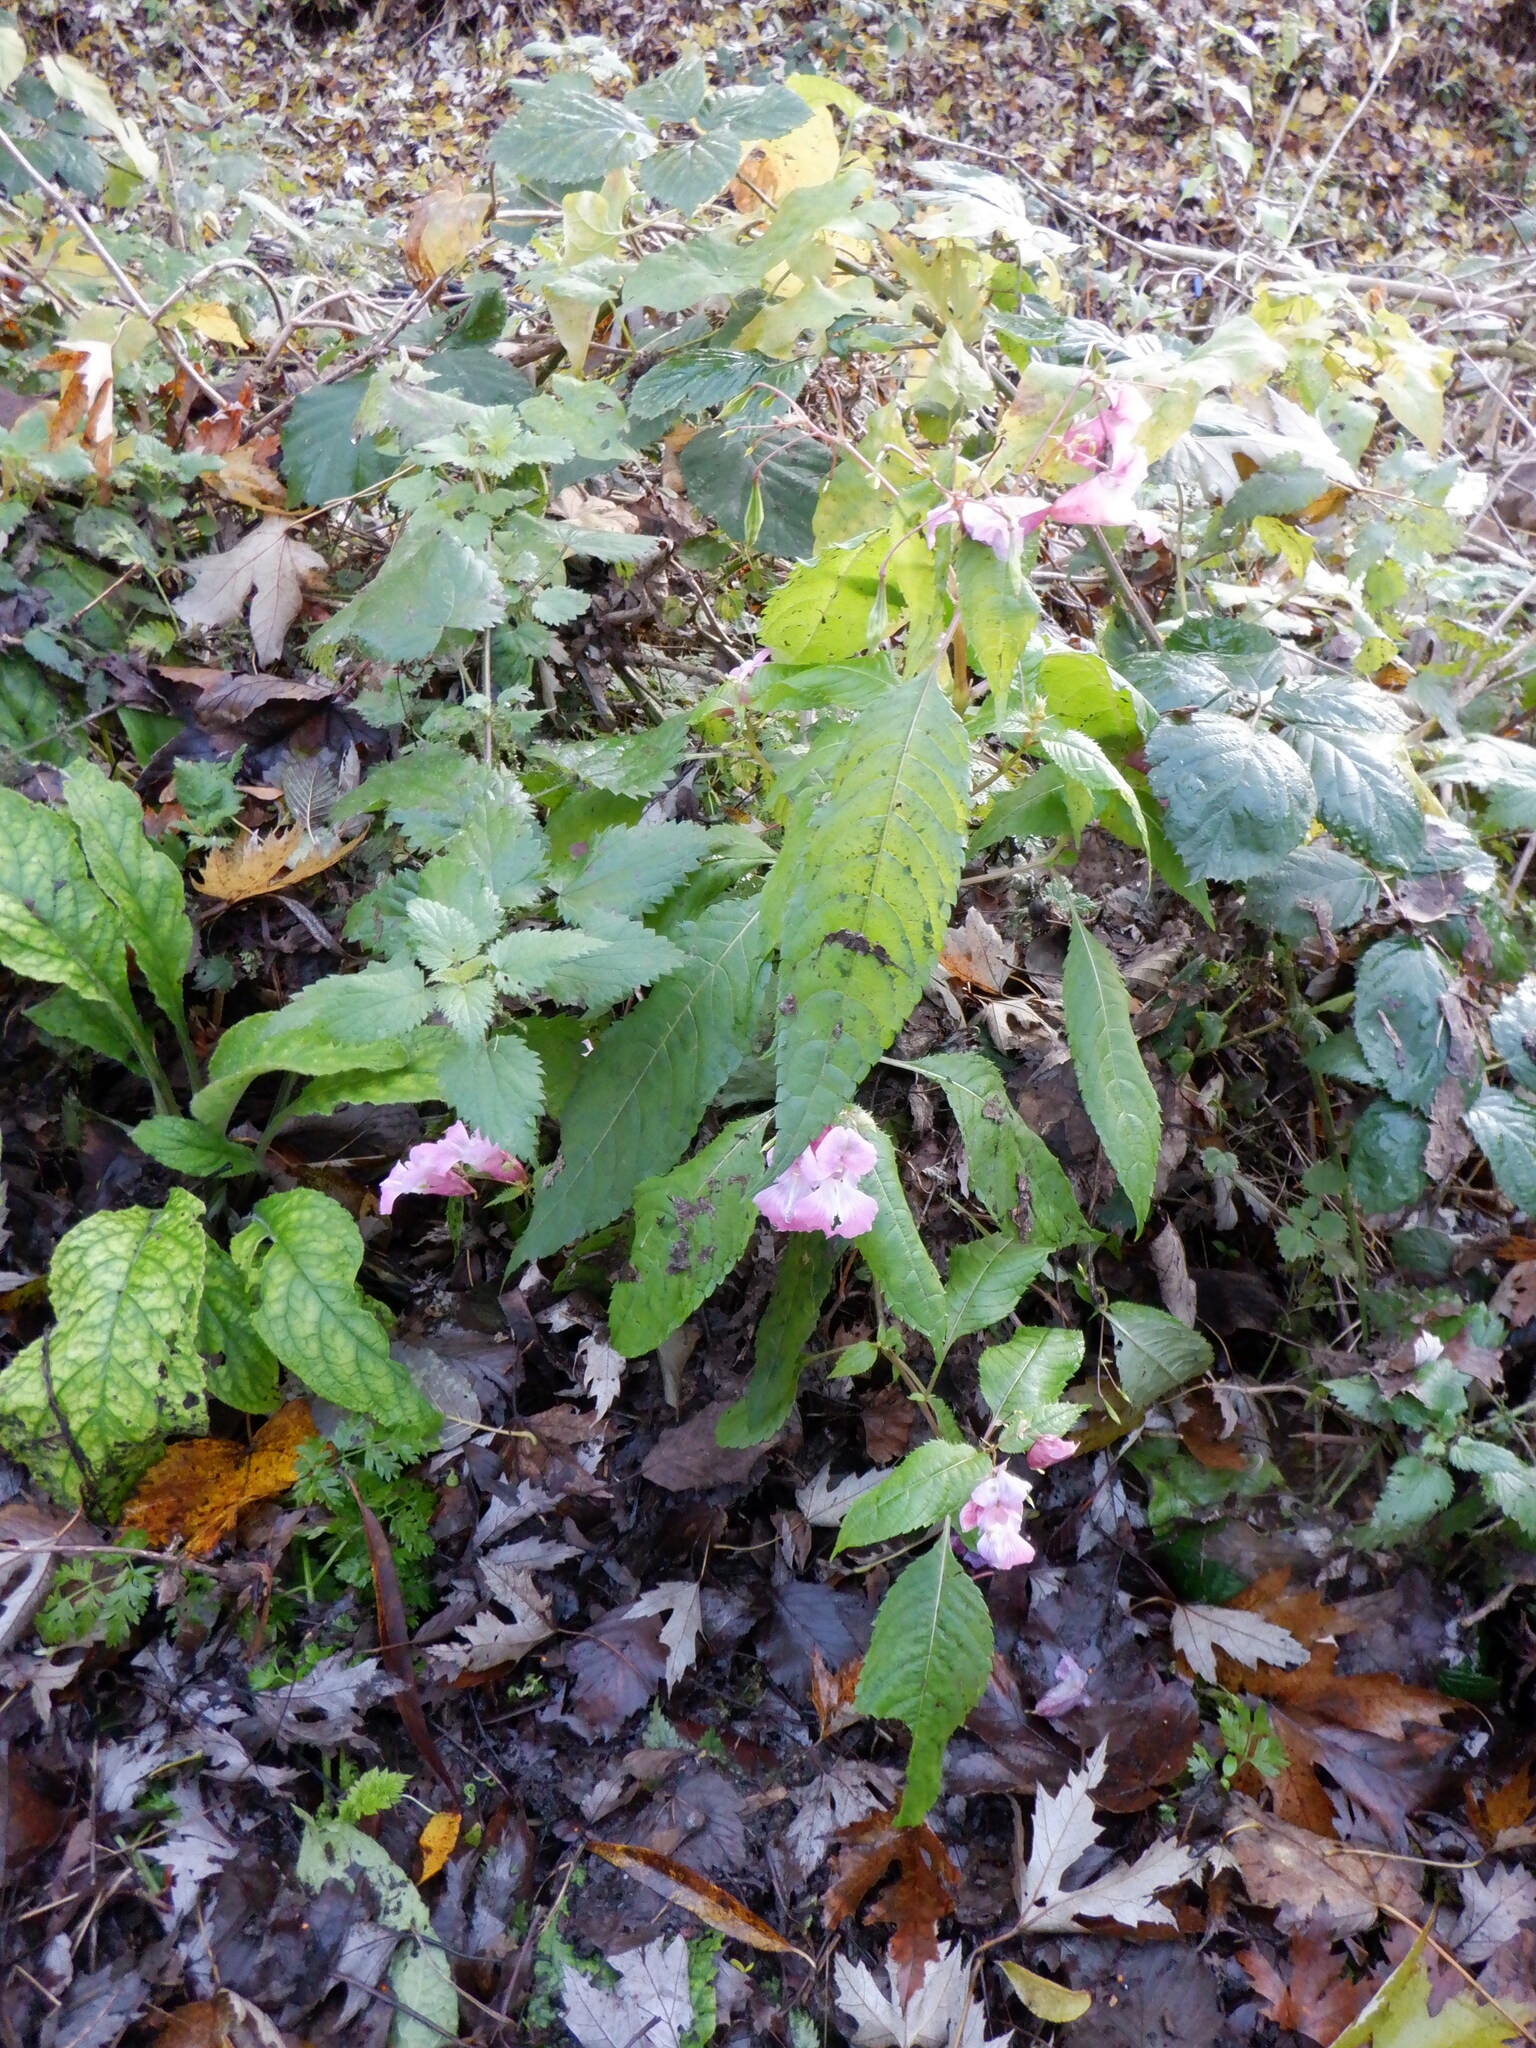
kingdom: Plantae
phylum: Tracheophyta
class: Magnoliopsida
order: Ericales
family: Balsaminaceae
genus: Impatiens
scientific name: Impatiens glandulifera
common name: Himalayan balsam
